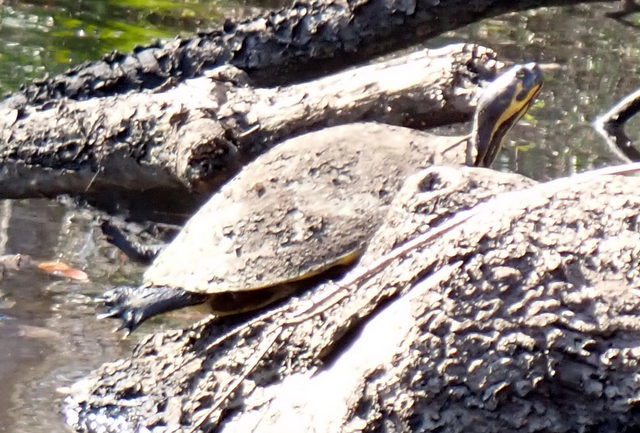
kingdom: Animalia
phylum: Chordata
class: Testudines
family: Emydidae
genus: Pseudemys
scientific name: Pseudemys concinna
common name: Eastern river cooter
